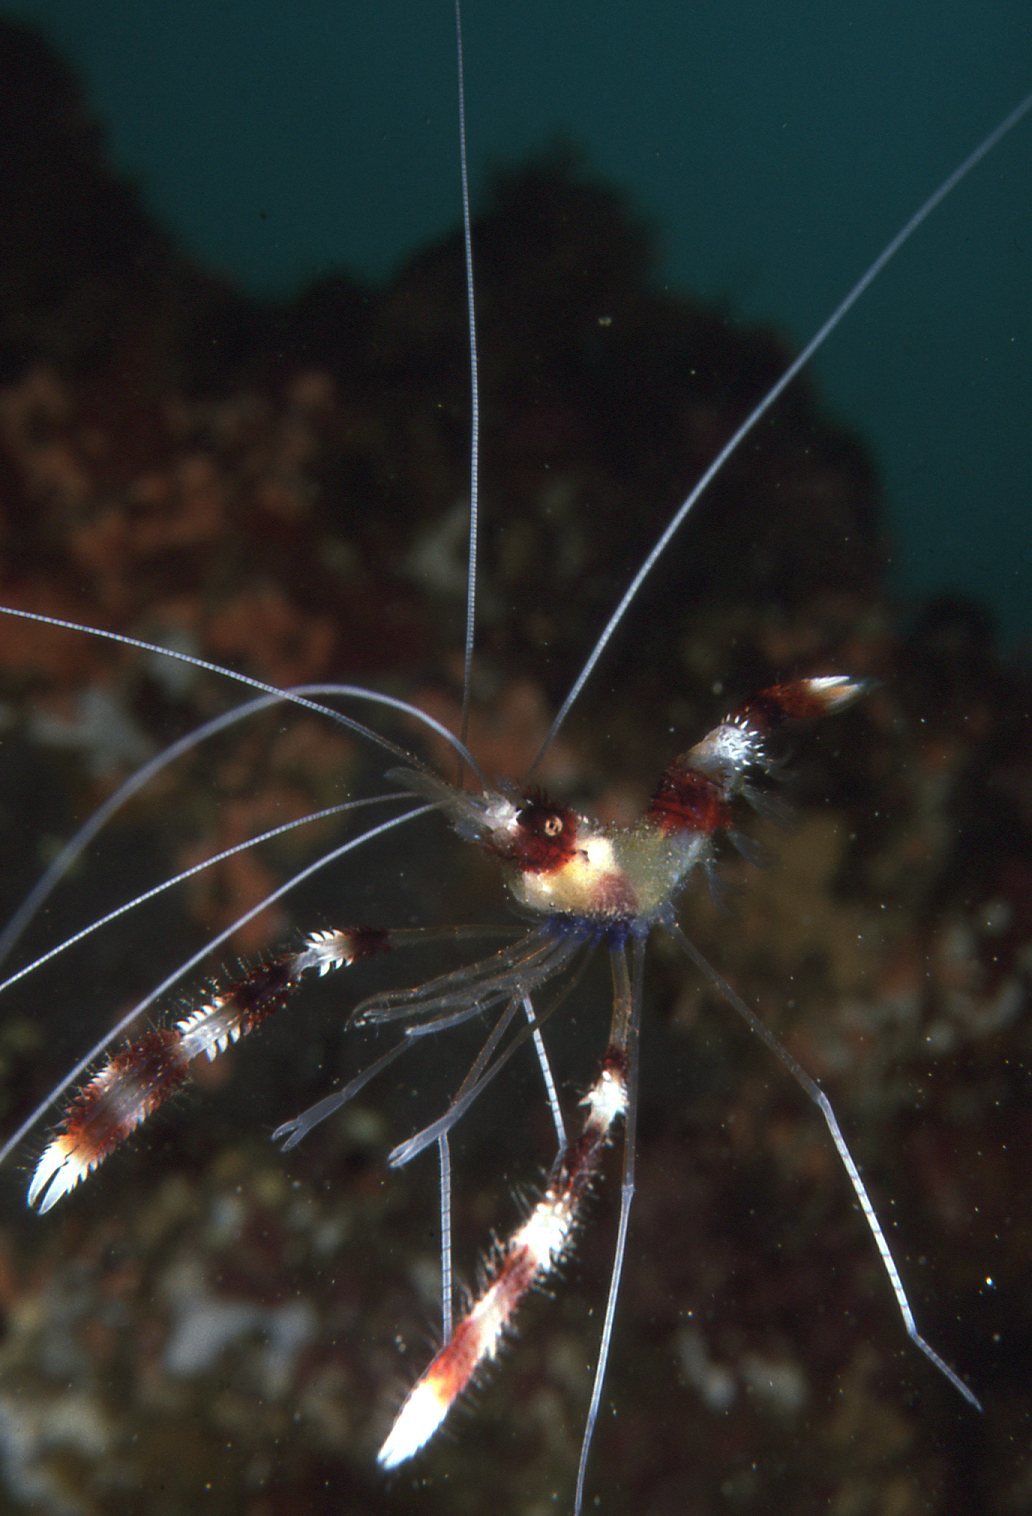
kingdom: Animalia
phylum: Arthropoda
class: Malacostraca
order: Decapoda
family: Stenopodidae
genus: Stenopus
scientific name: Stenopus hispidus
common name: Banded coral shrimp
